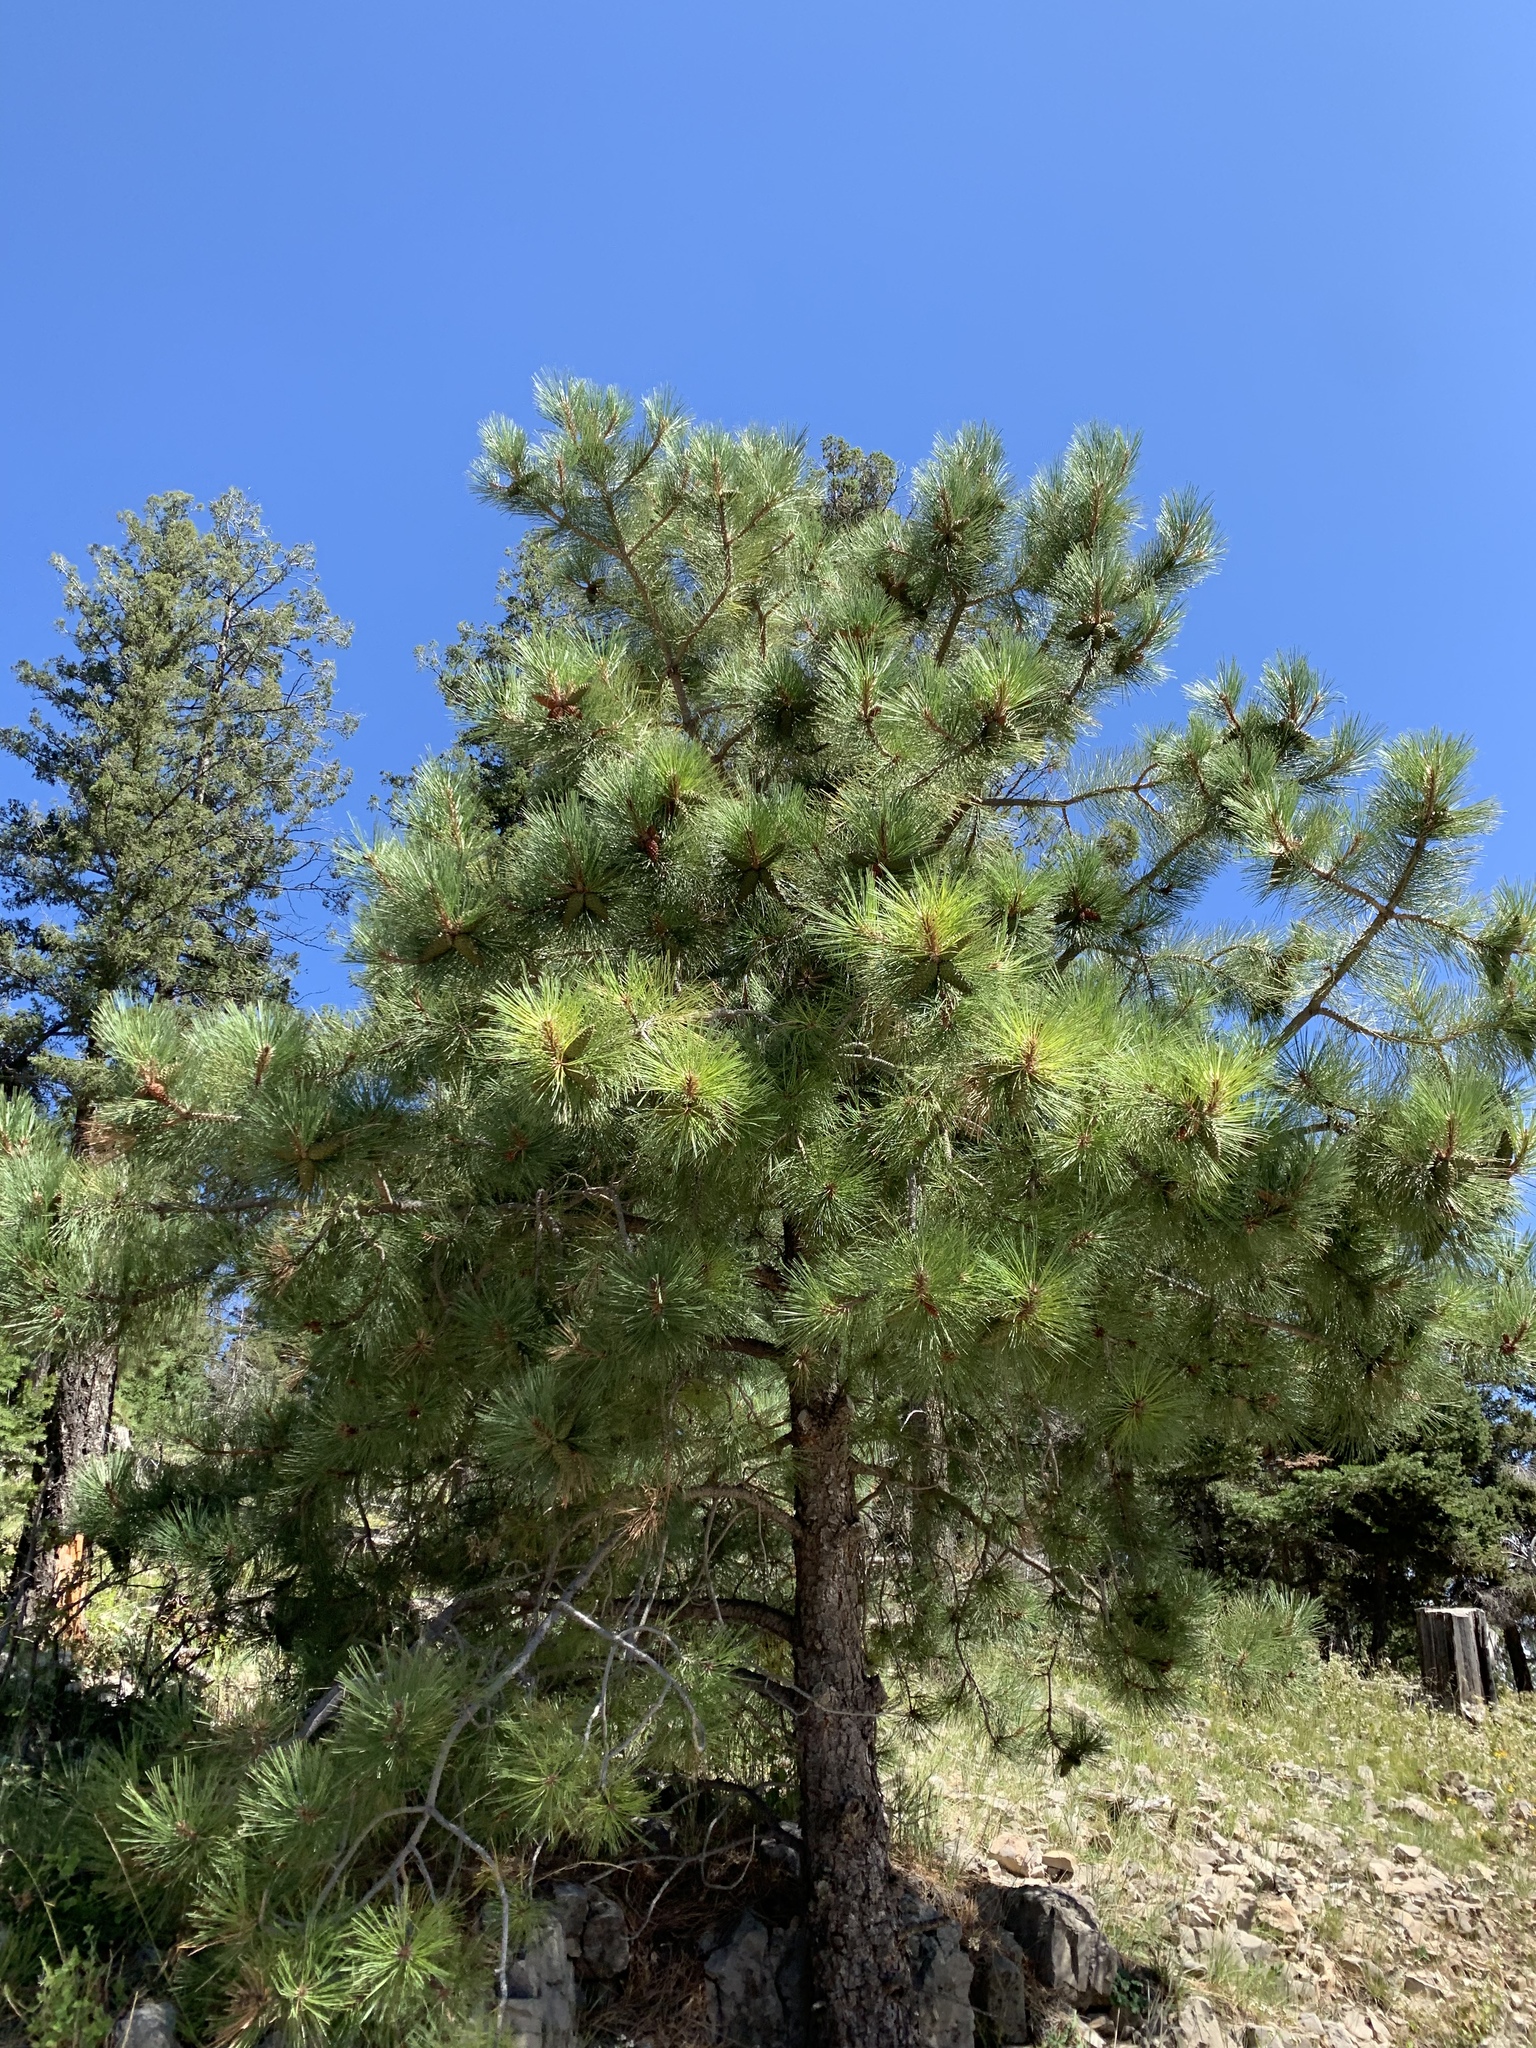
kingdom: Plantae
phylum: Tracheophyta
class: Pinopsida
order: Pinales
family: Pinaceae
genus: Pinus
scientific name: Pinus ponderosa
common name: Western yellow-pine
